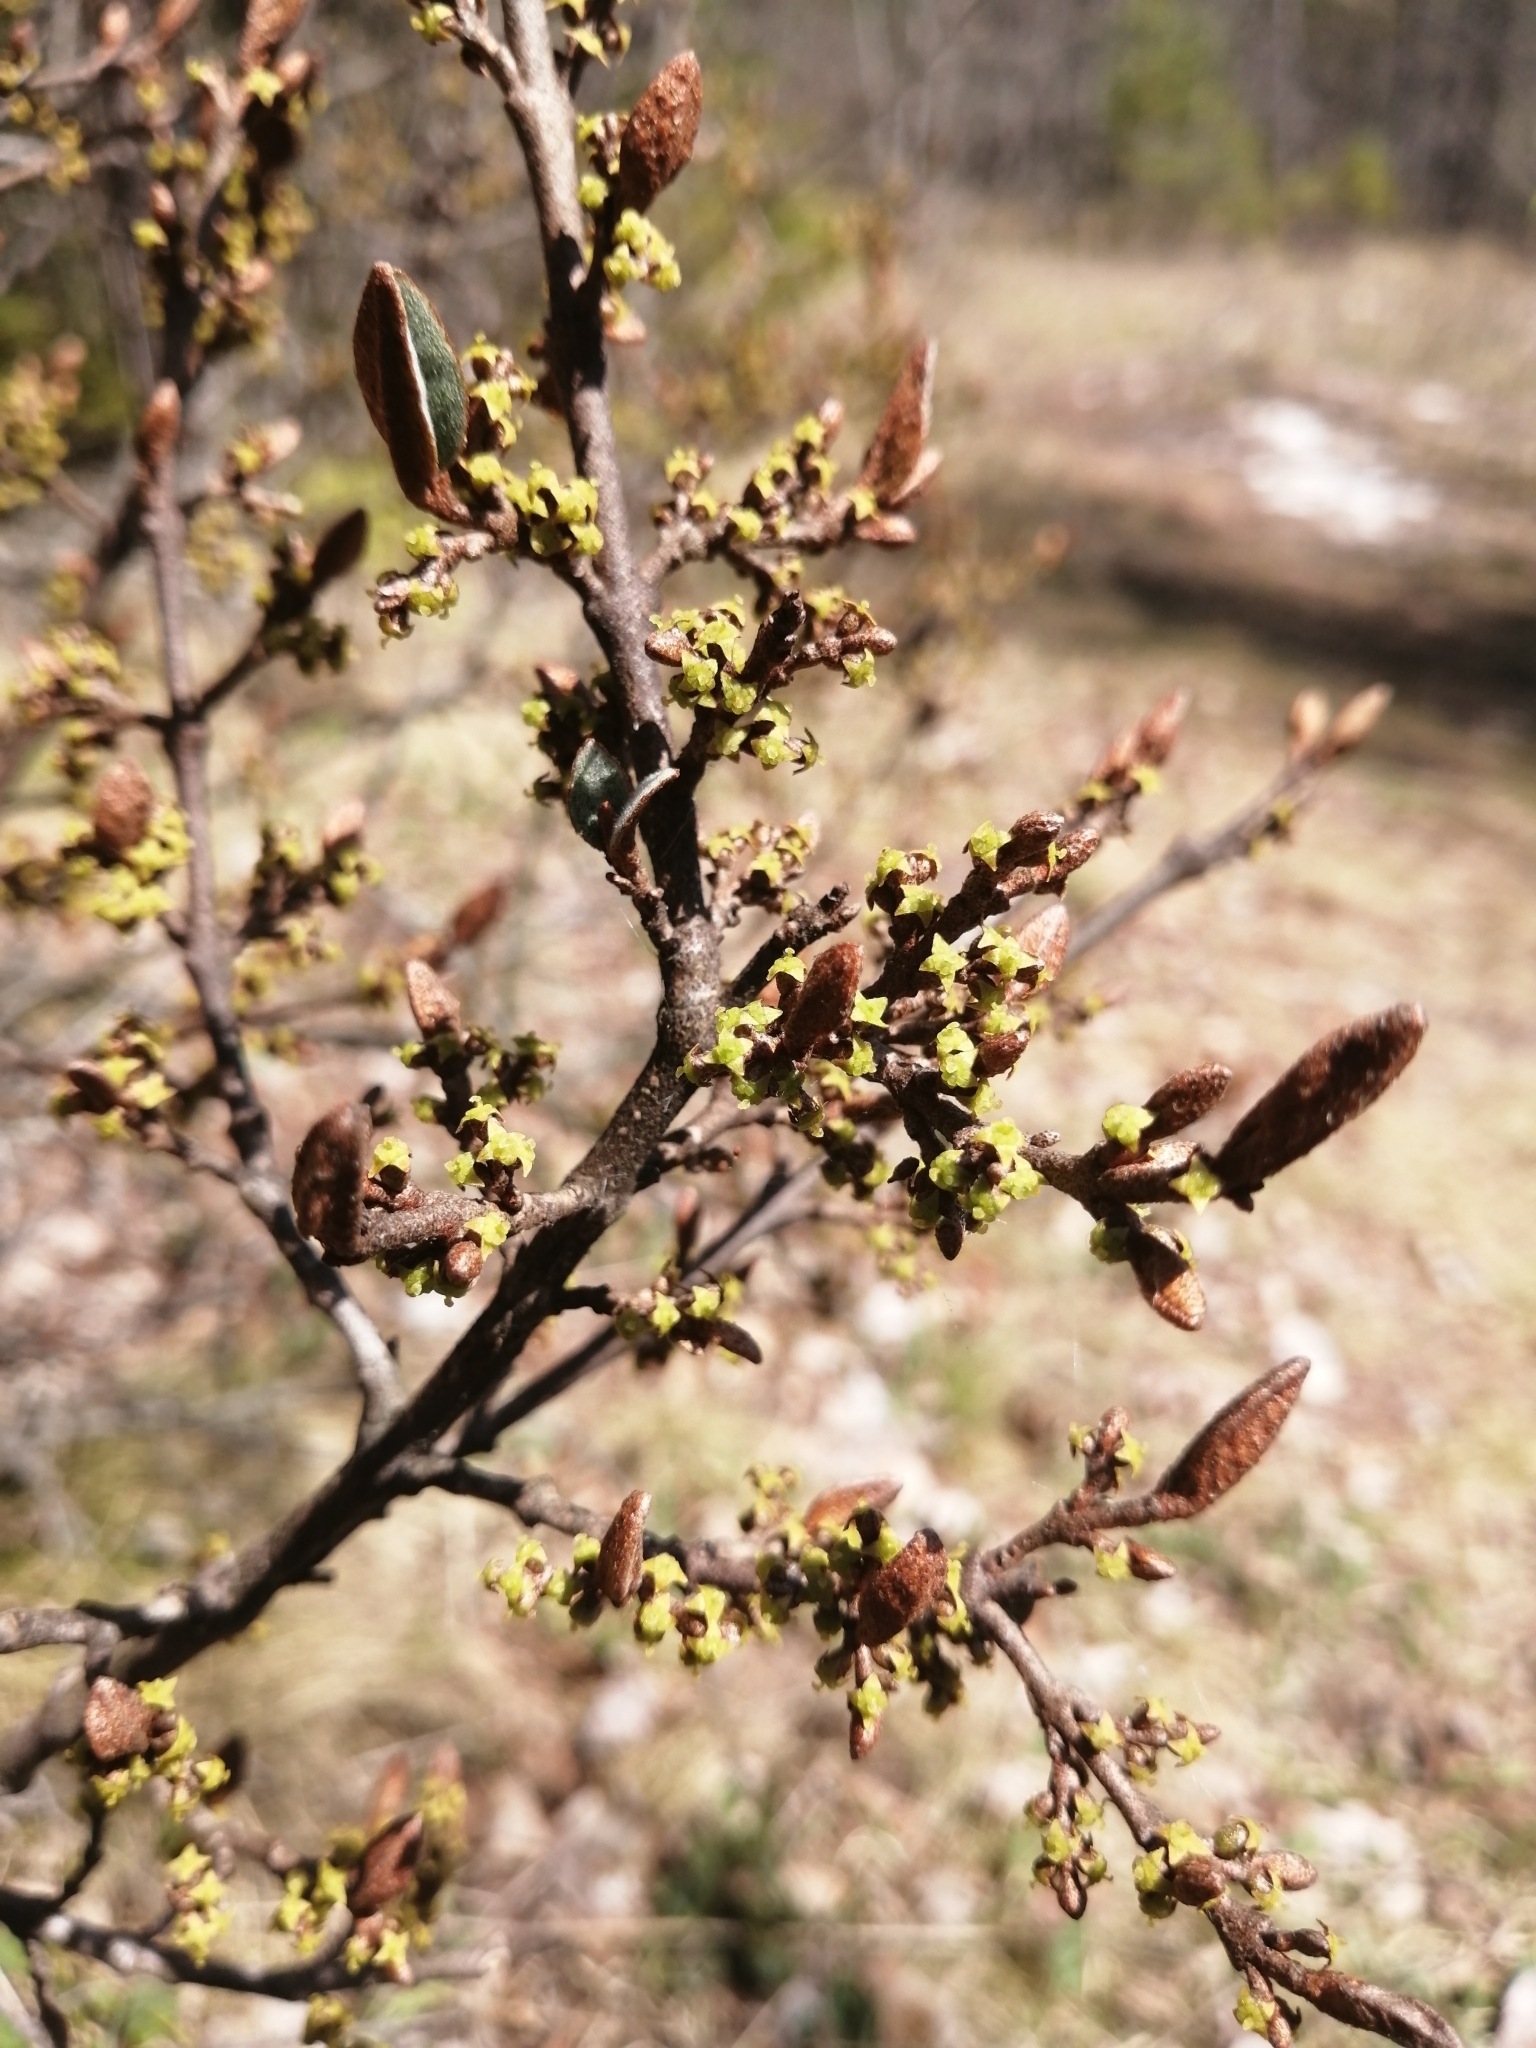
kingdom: Plantae
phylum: Tracheophyta
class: Magnoliopsida
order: Rosales
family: Elaeagnaceae
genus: Shepherdia
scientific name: Shepherdia canadensis
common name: Soapberry
